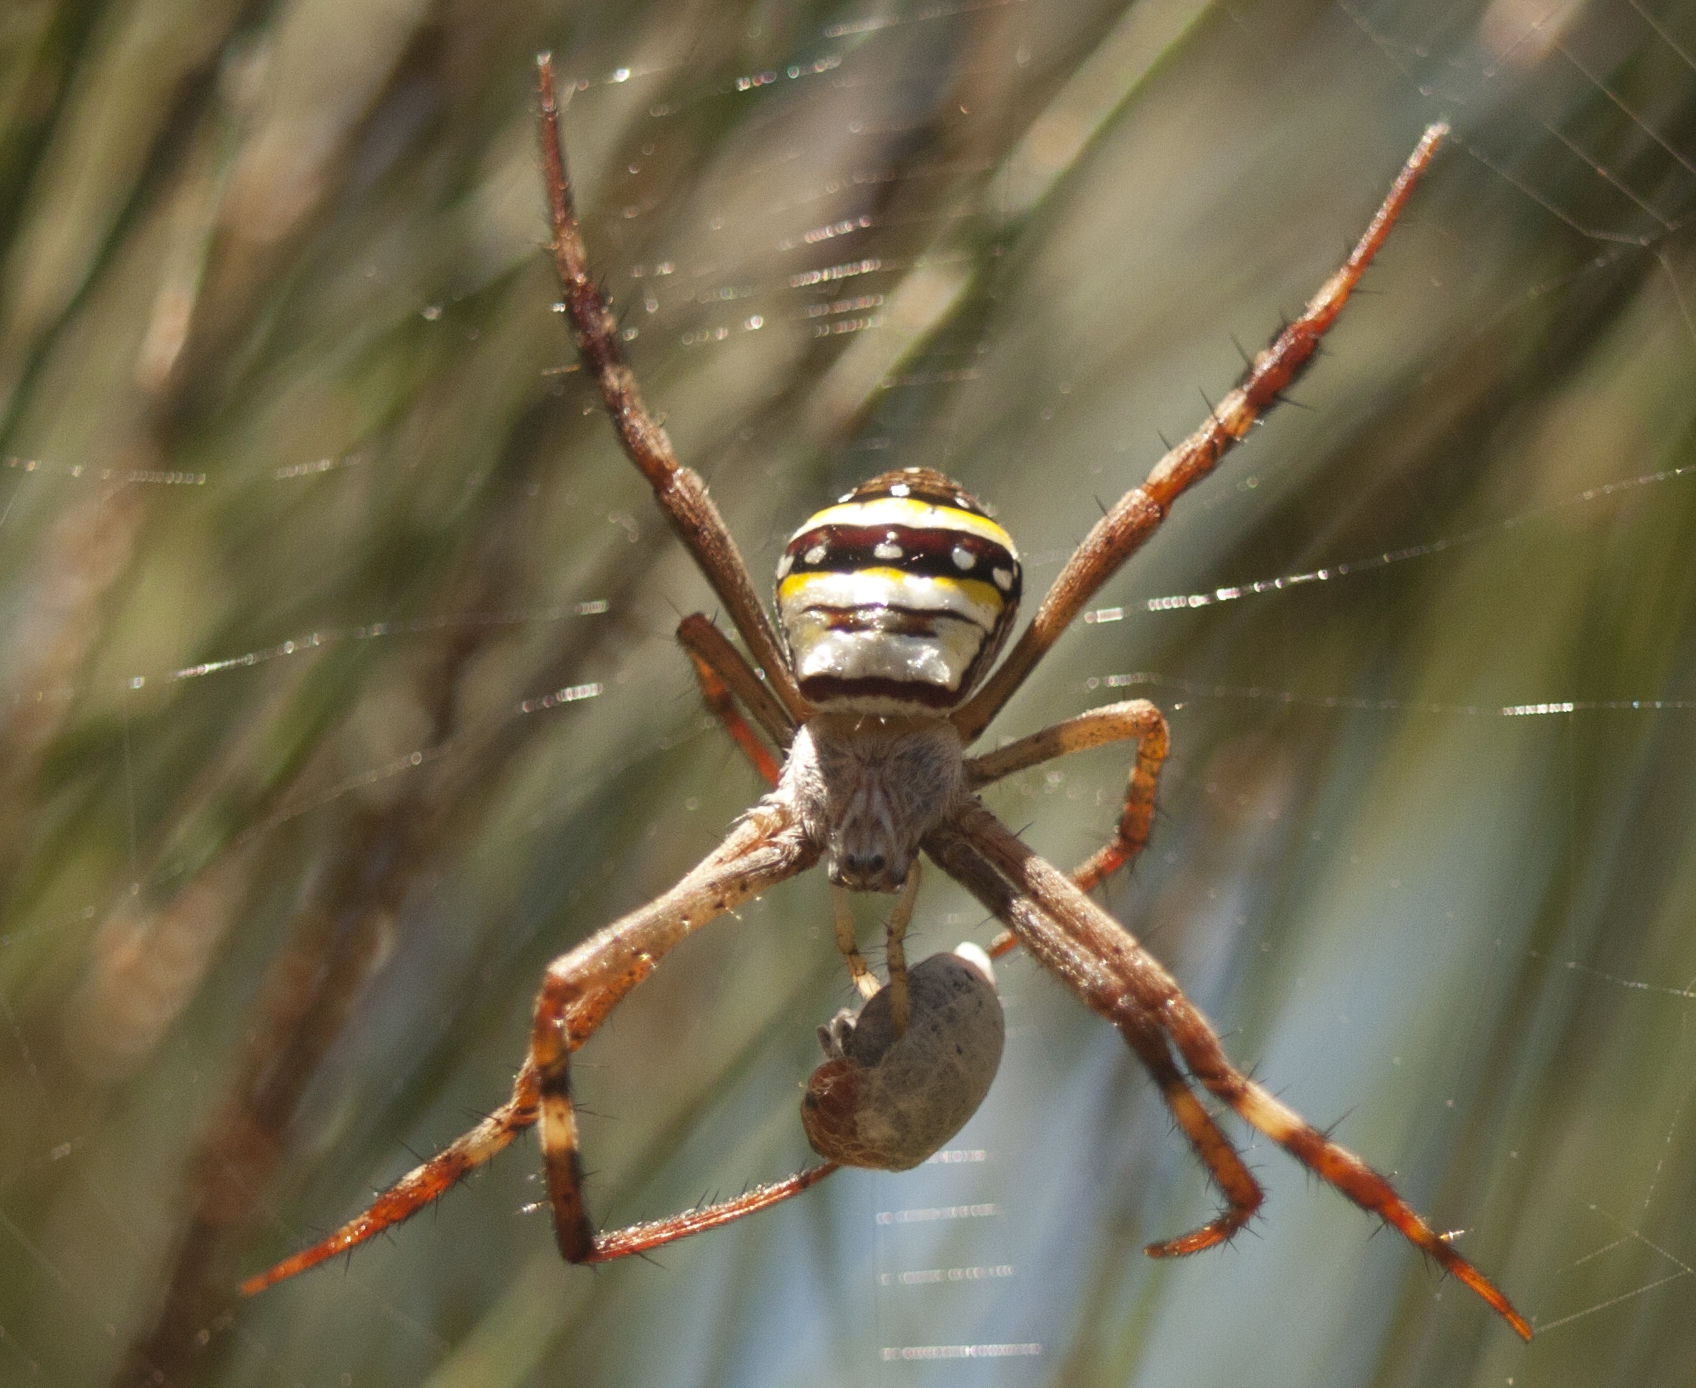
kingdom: Animalia
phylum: Arthropoda
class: Arachnida
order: Araneae
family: Araneidae
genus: Argiope
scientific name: Argiope keyserlingi
